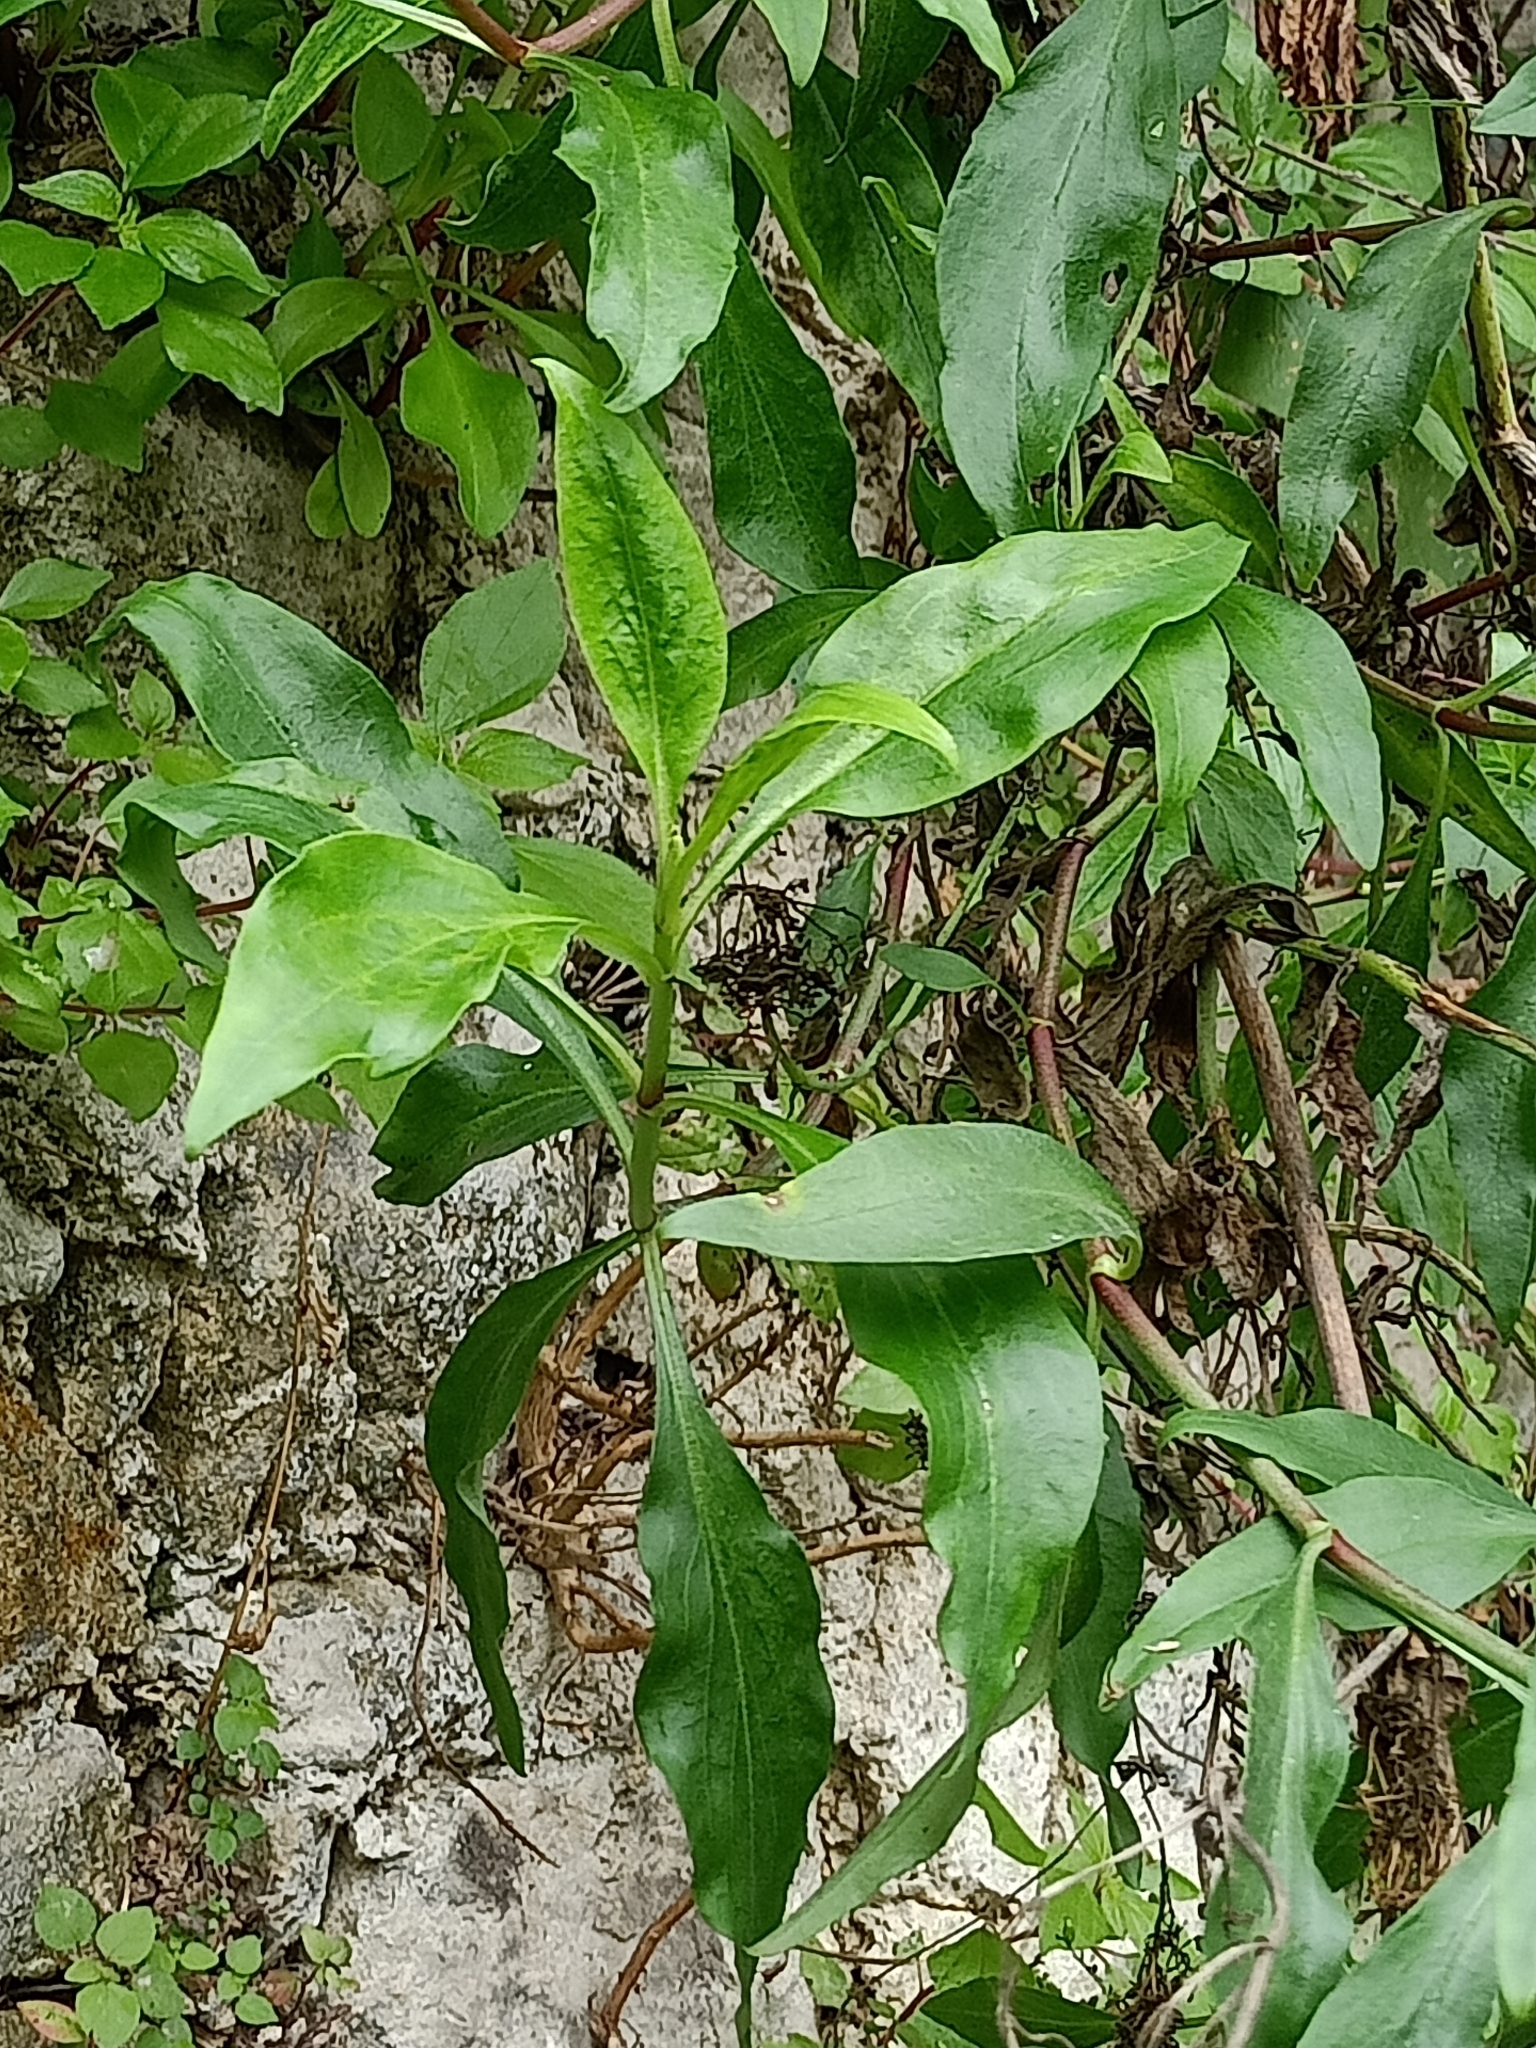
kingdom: Plantae
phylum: Tracheophyta
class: Magnoliopsida
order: Dipsacales
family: Caprifoliaceae
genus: Centranthus
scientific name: Centranthus ruber
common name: Red valerian
